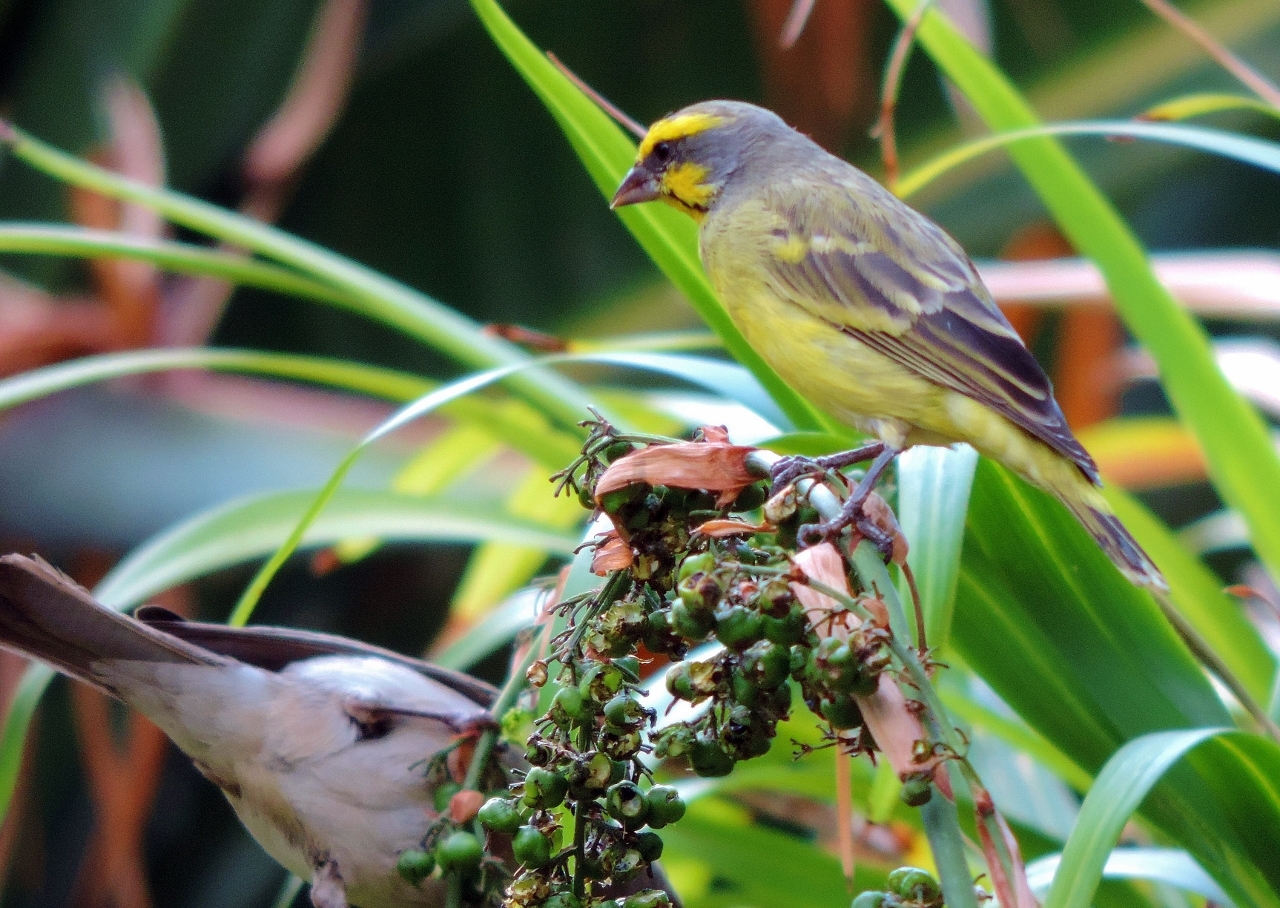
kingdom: Animalia
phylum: Chordata
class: Aves
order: Passeriformes
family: Fringillidae
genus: Crithagra
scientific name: Crithagra mozambica
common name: Yellow-fronted canary
